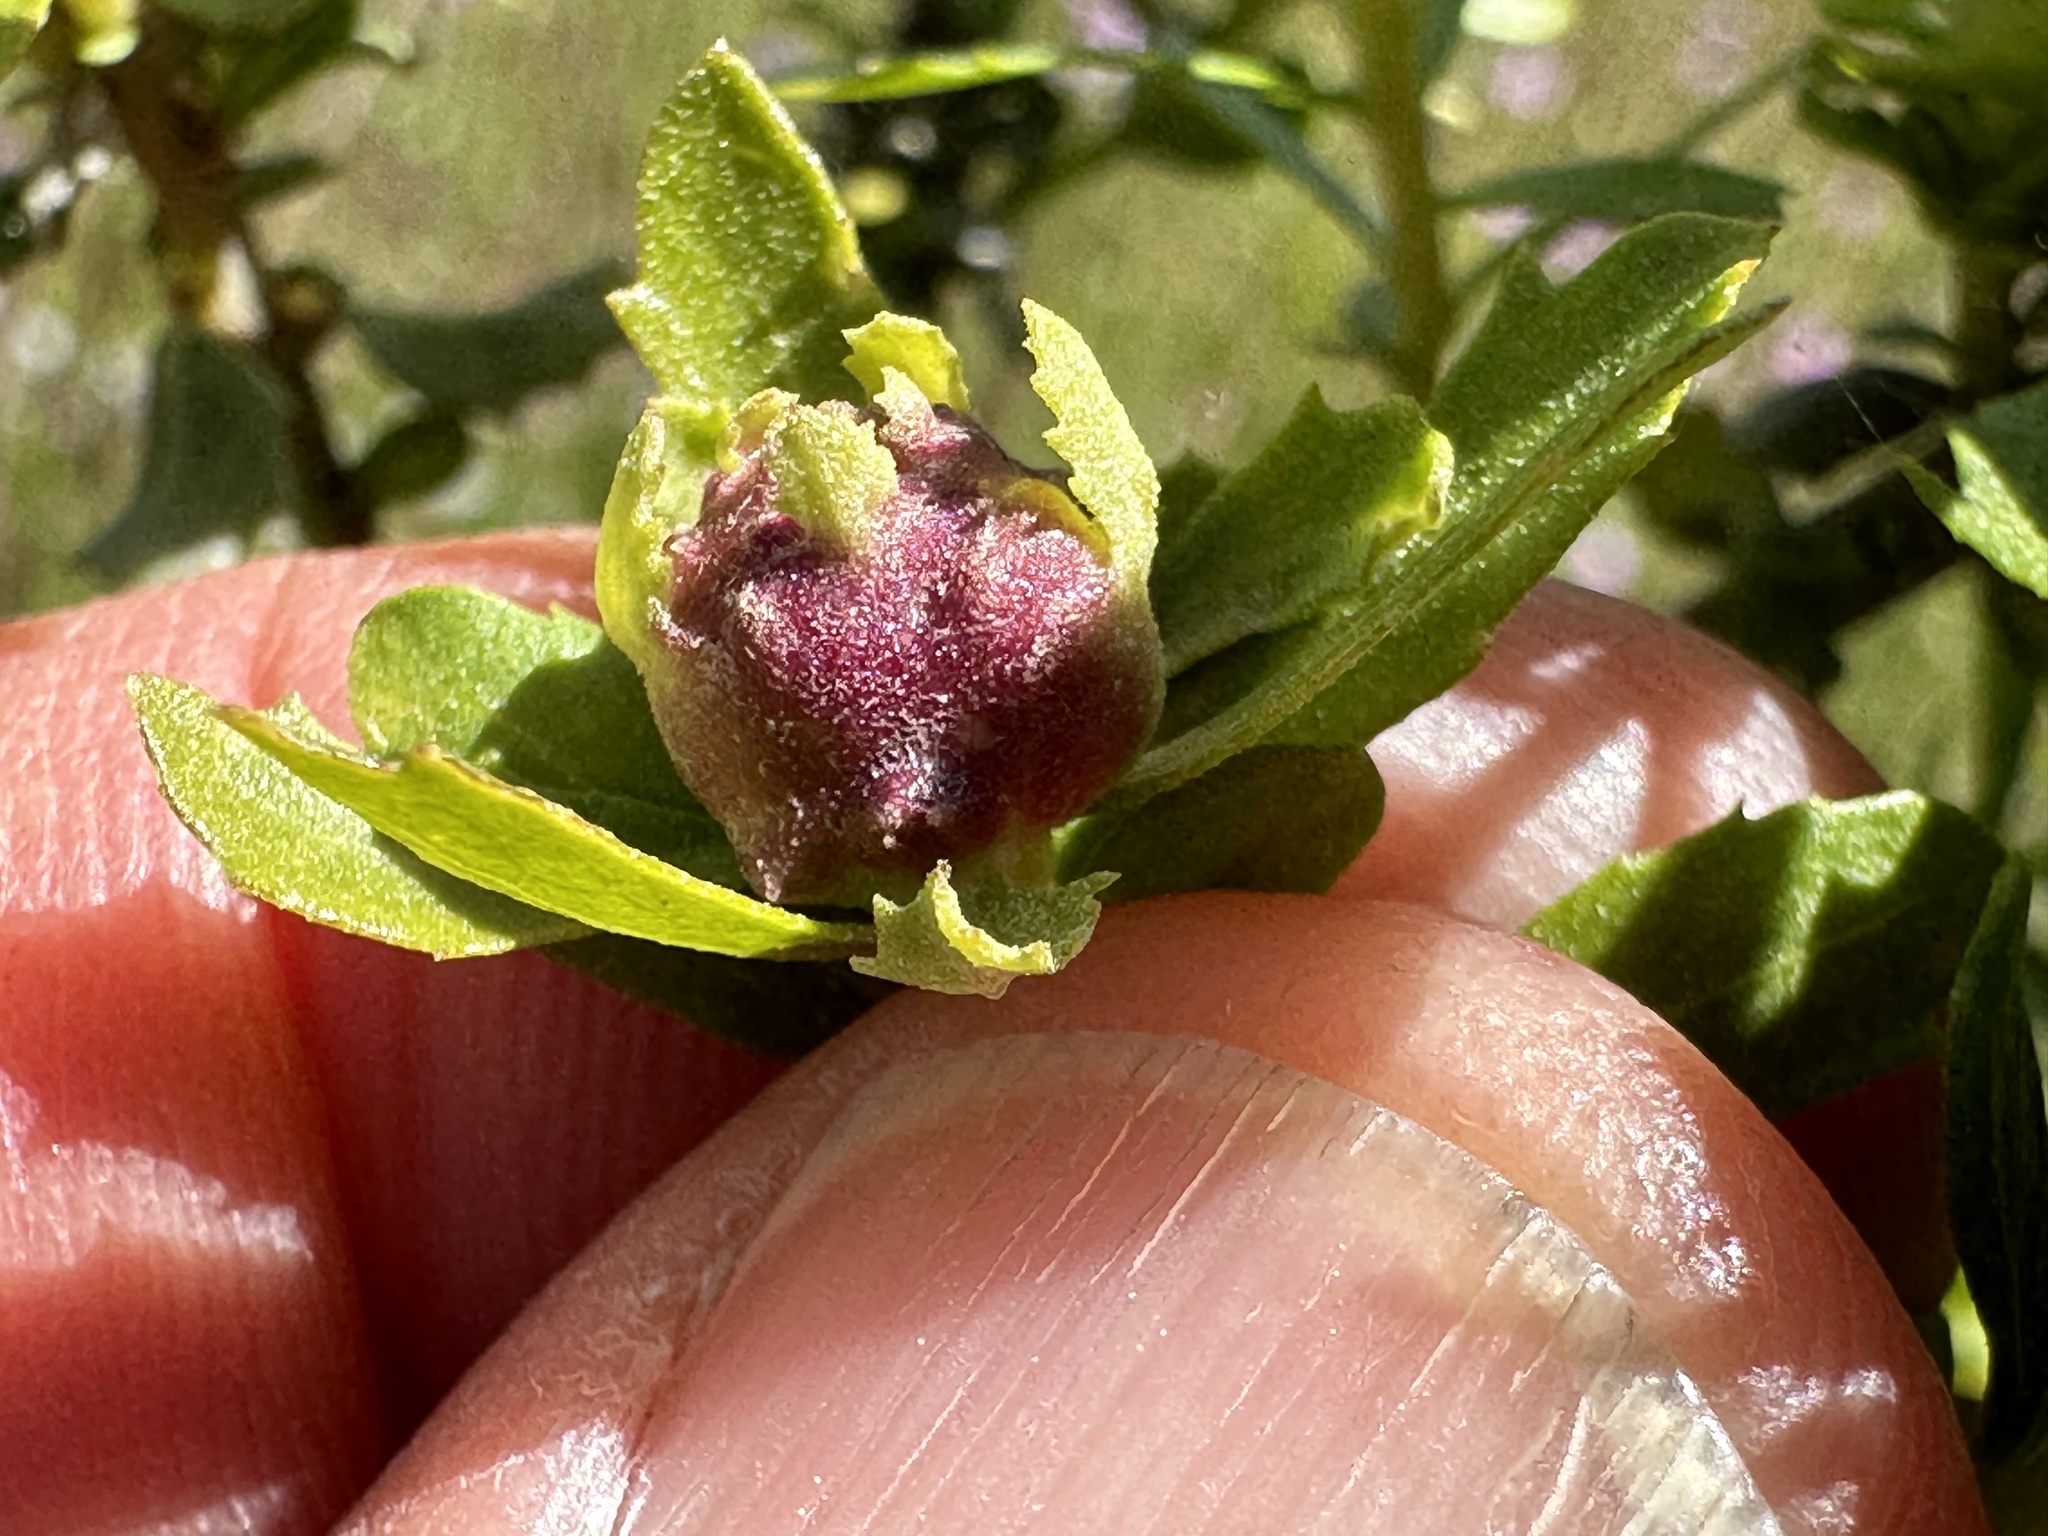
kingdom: Animalia
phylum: Arthropoda
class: Insecta
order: Diptera
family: Cecidomyiidae
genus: Rhopalomyia
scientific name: Rhopalomyia californica
